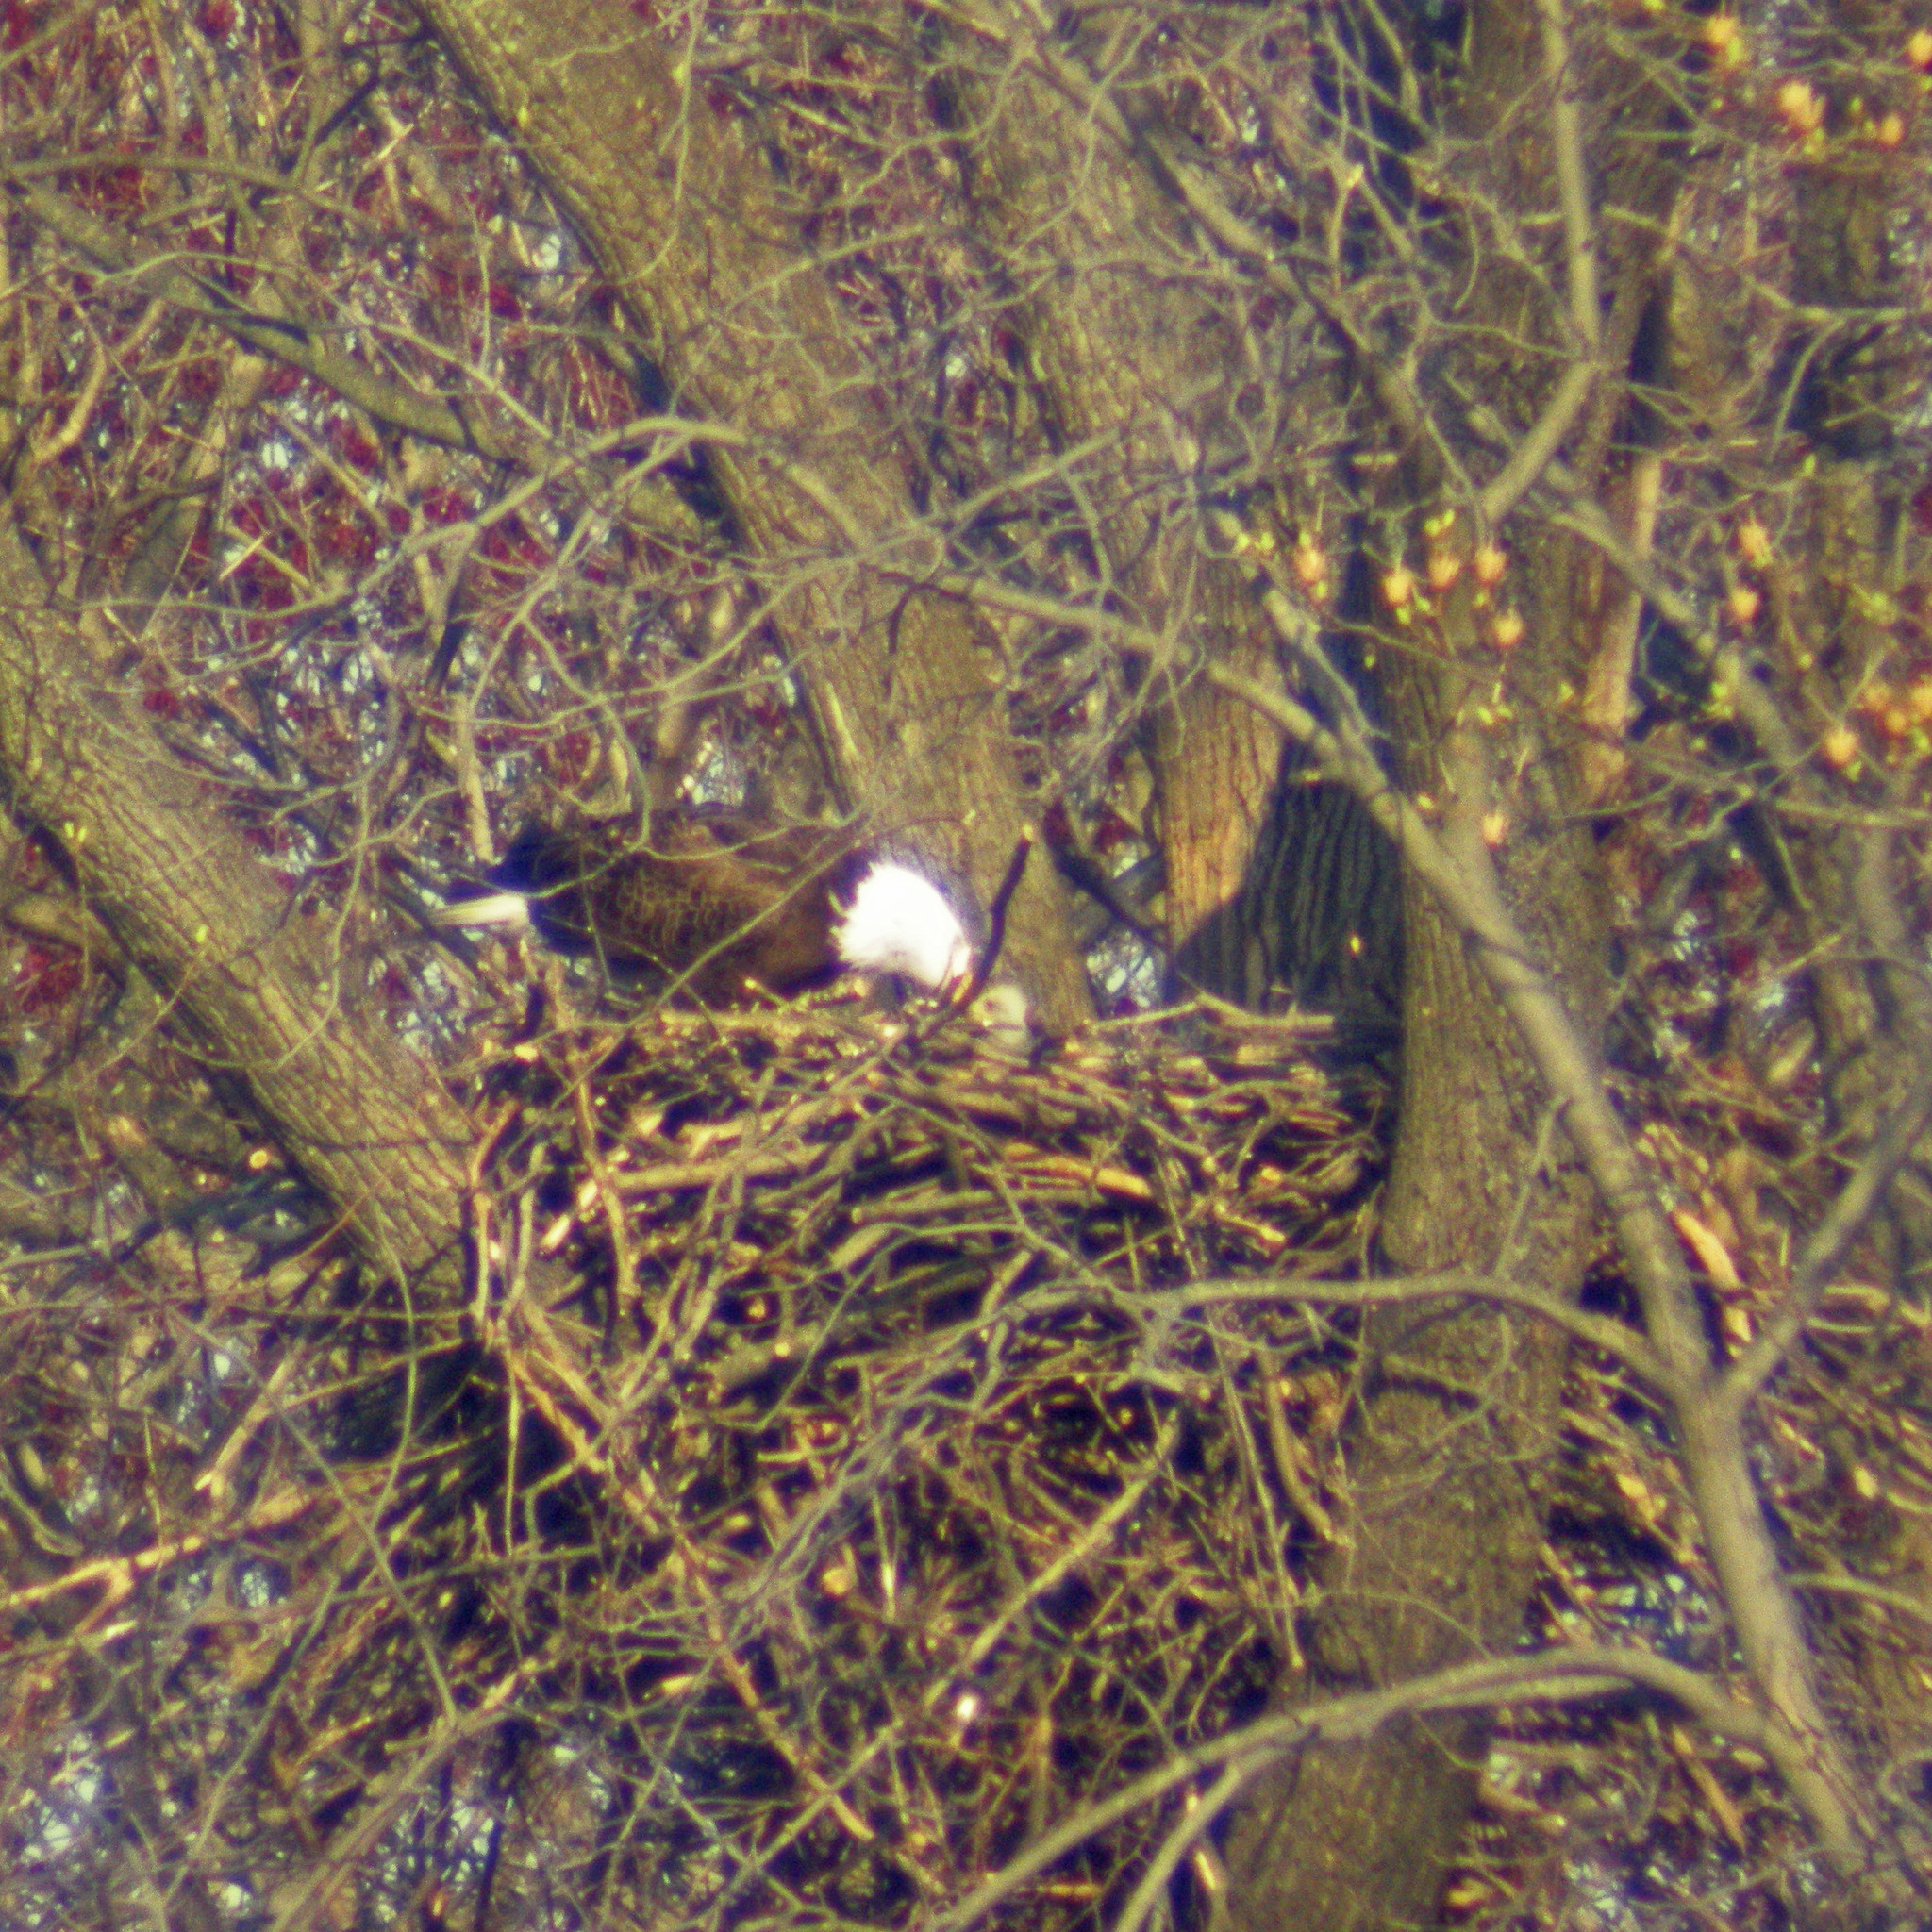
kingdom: Animalia
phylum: Chordata
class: Aves
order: Accipitriformes
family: Accipitridae
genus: Haliaeetus
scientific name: Haliaeetus leucocephalus
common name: Bald eagle
